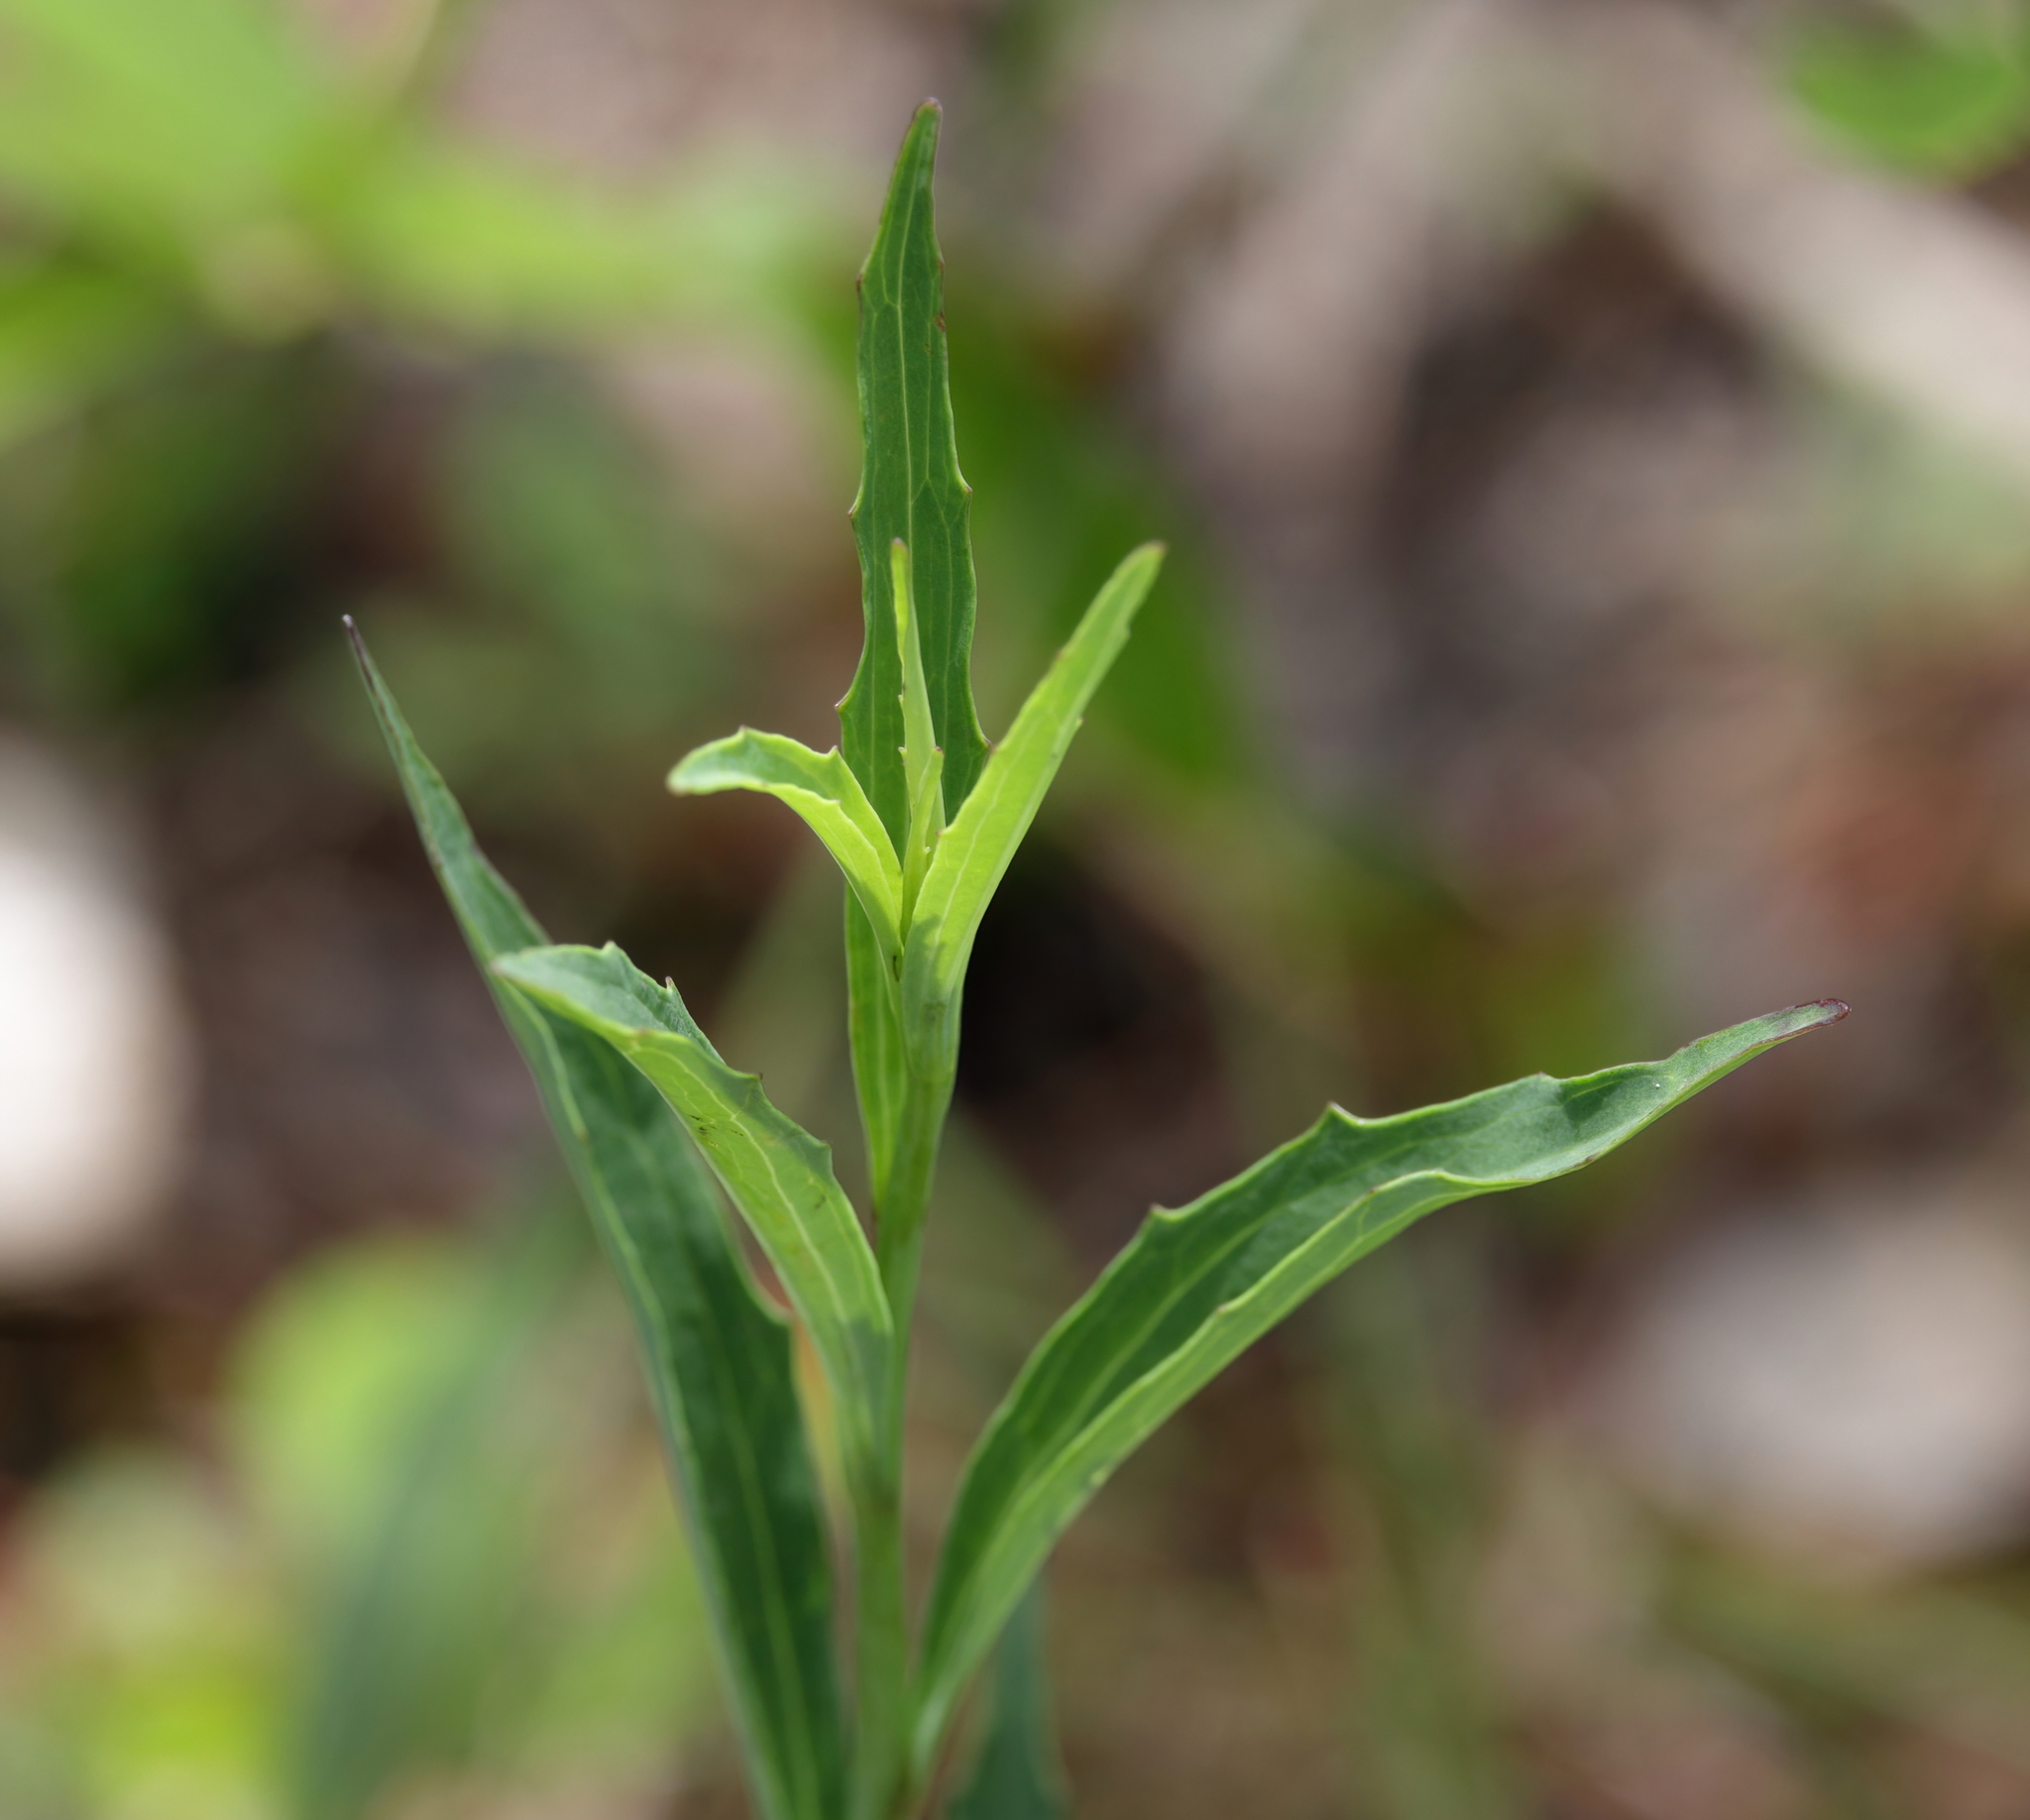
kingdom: Plantae
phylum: Tracheophyta
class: Magnoliopsida
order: Asterales
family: Asteraceae
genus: Arnoglossum
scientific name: Arnoglossum ovatum
